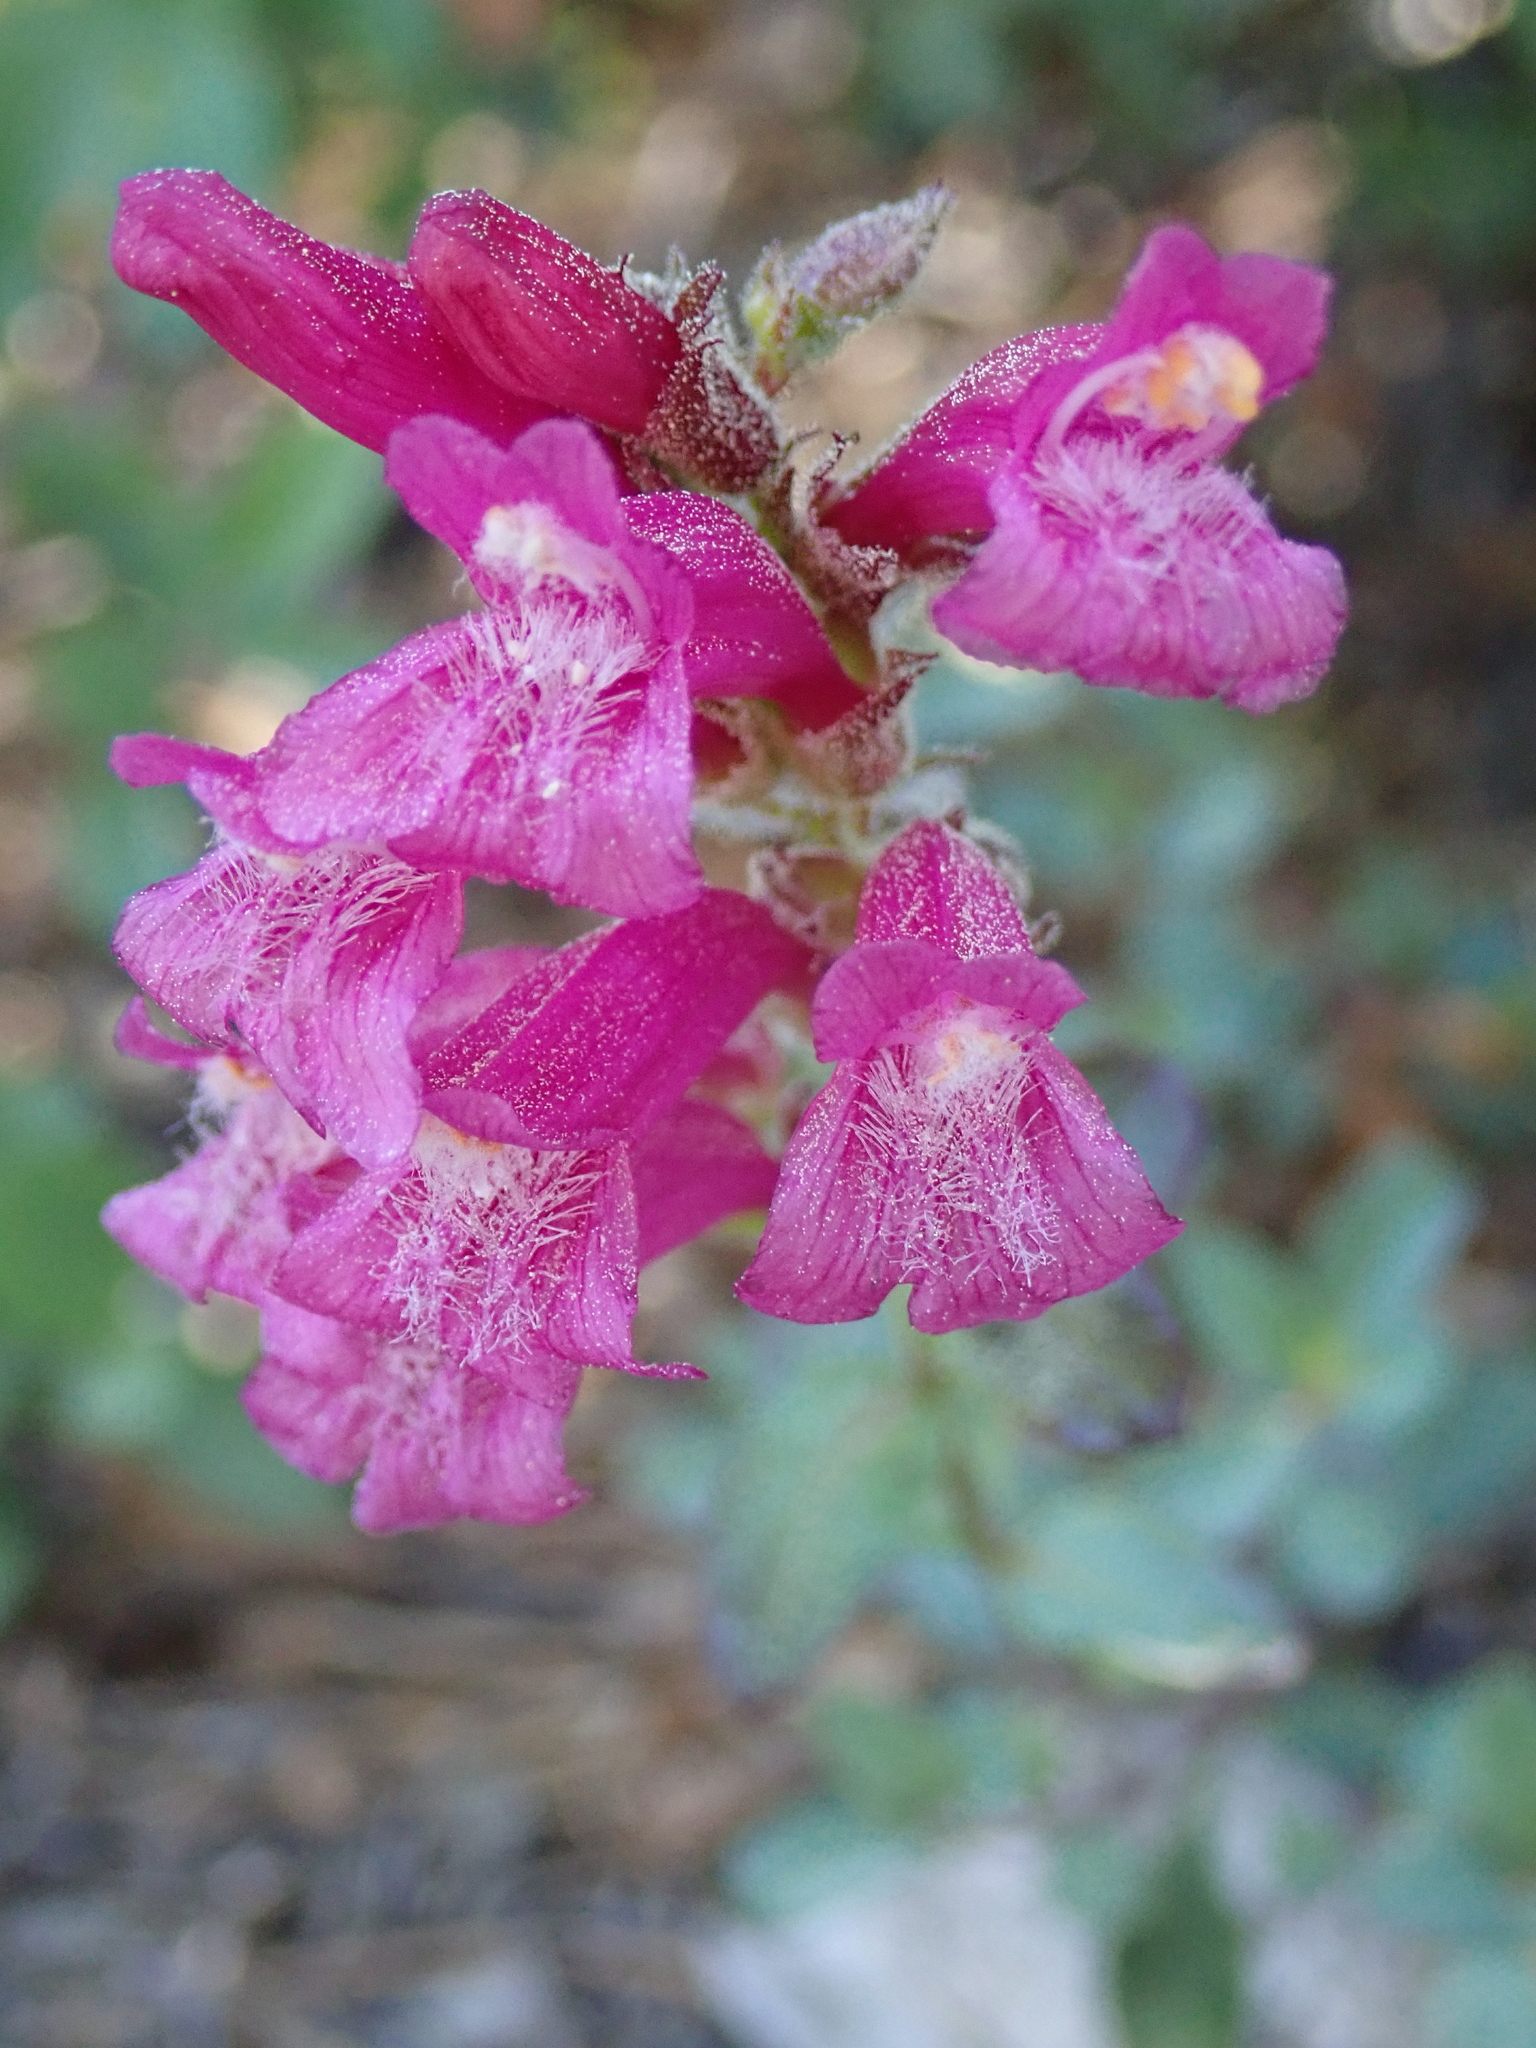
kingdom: Plantae
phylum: Tracheophyta
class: Magnoliopsida
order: Lamiales
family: Plantaginaceae
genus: Penstemon
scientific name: Penstemon newberryi
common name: Mountain-pride
